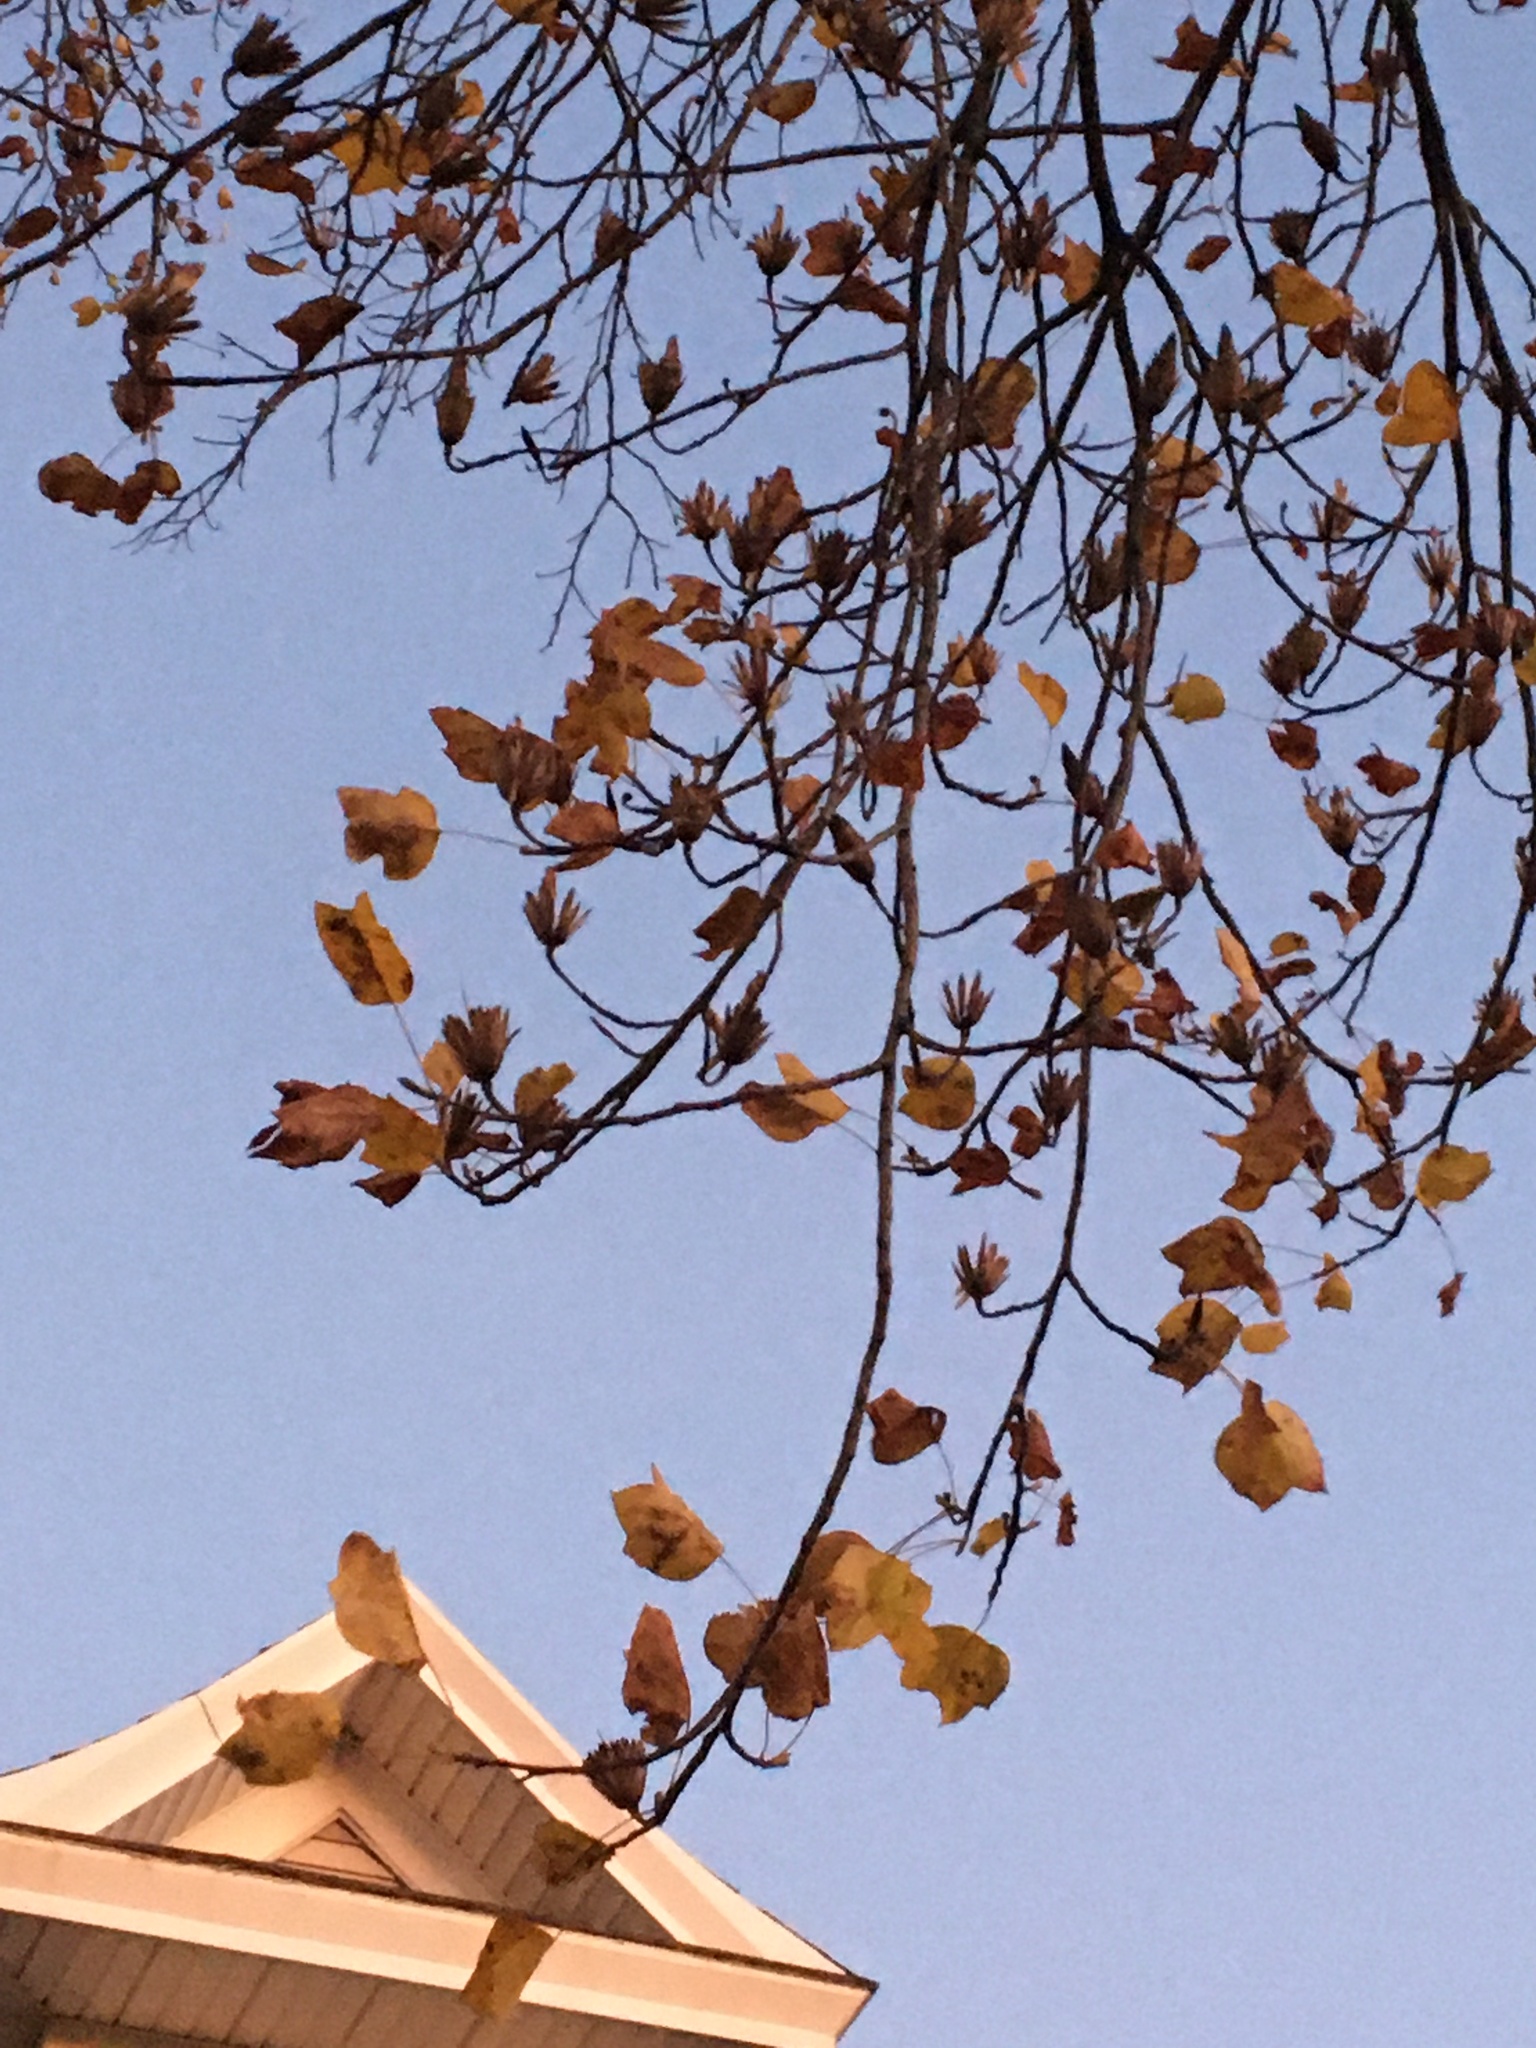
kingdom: Plantae
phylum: Tracheophyta
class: Magnoliopsida
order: Magnoliales
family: Magnoliaceae
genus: Liriodendron
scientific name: Liriodendron tulipifera
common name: Tulip tree
